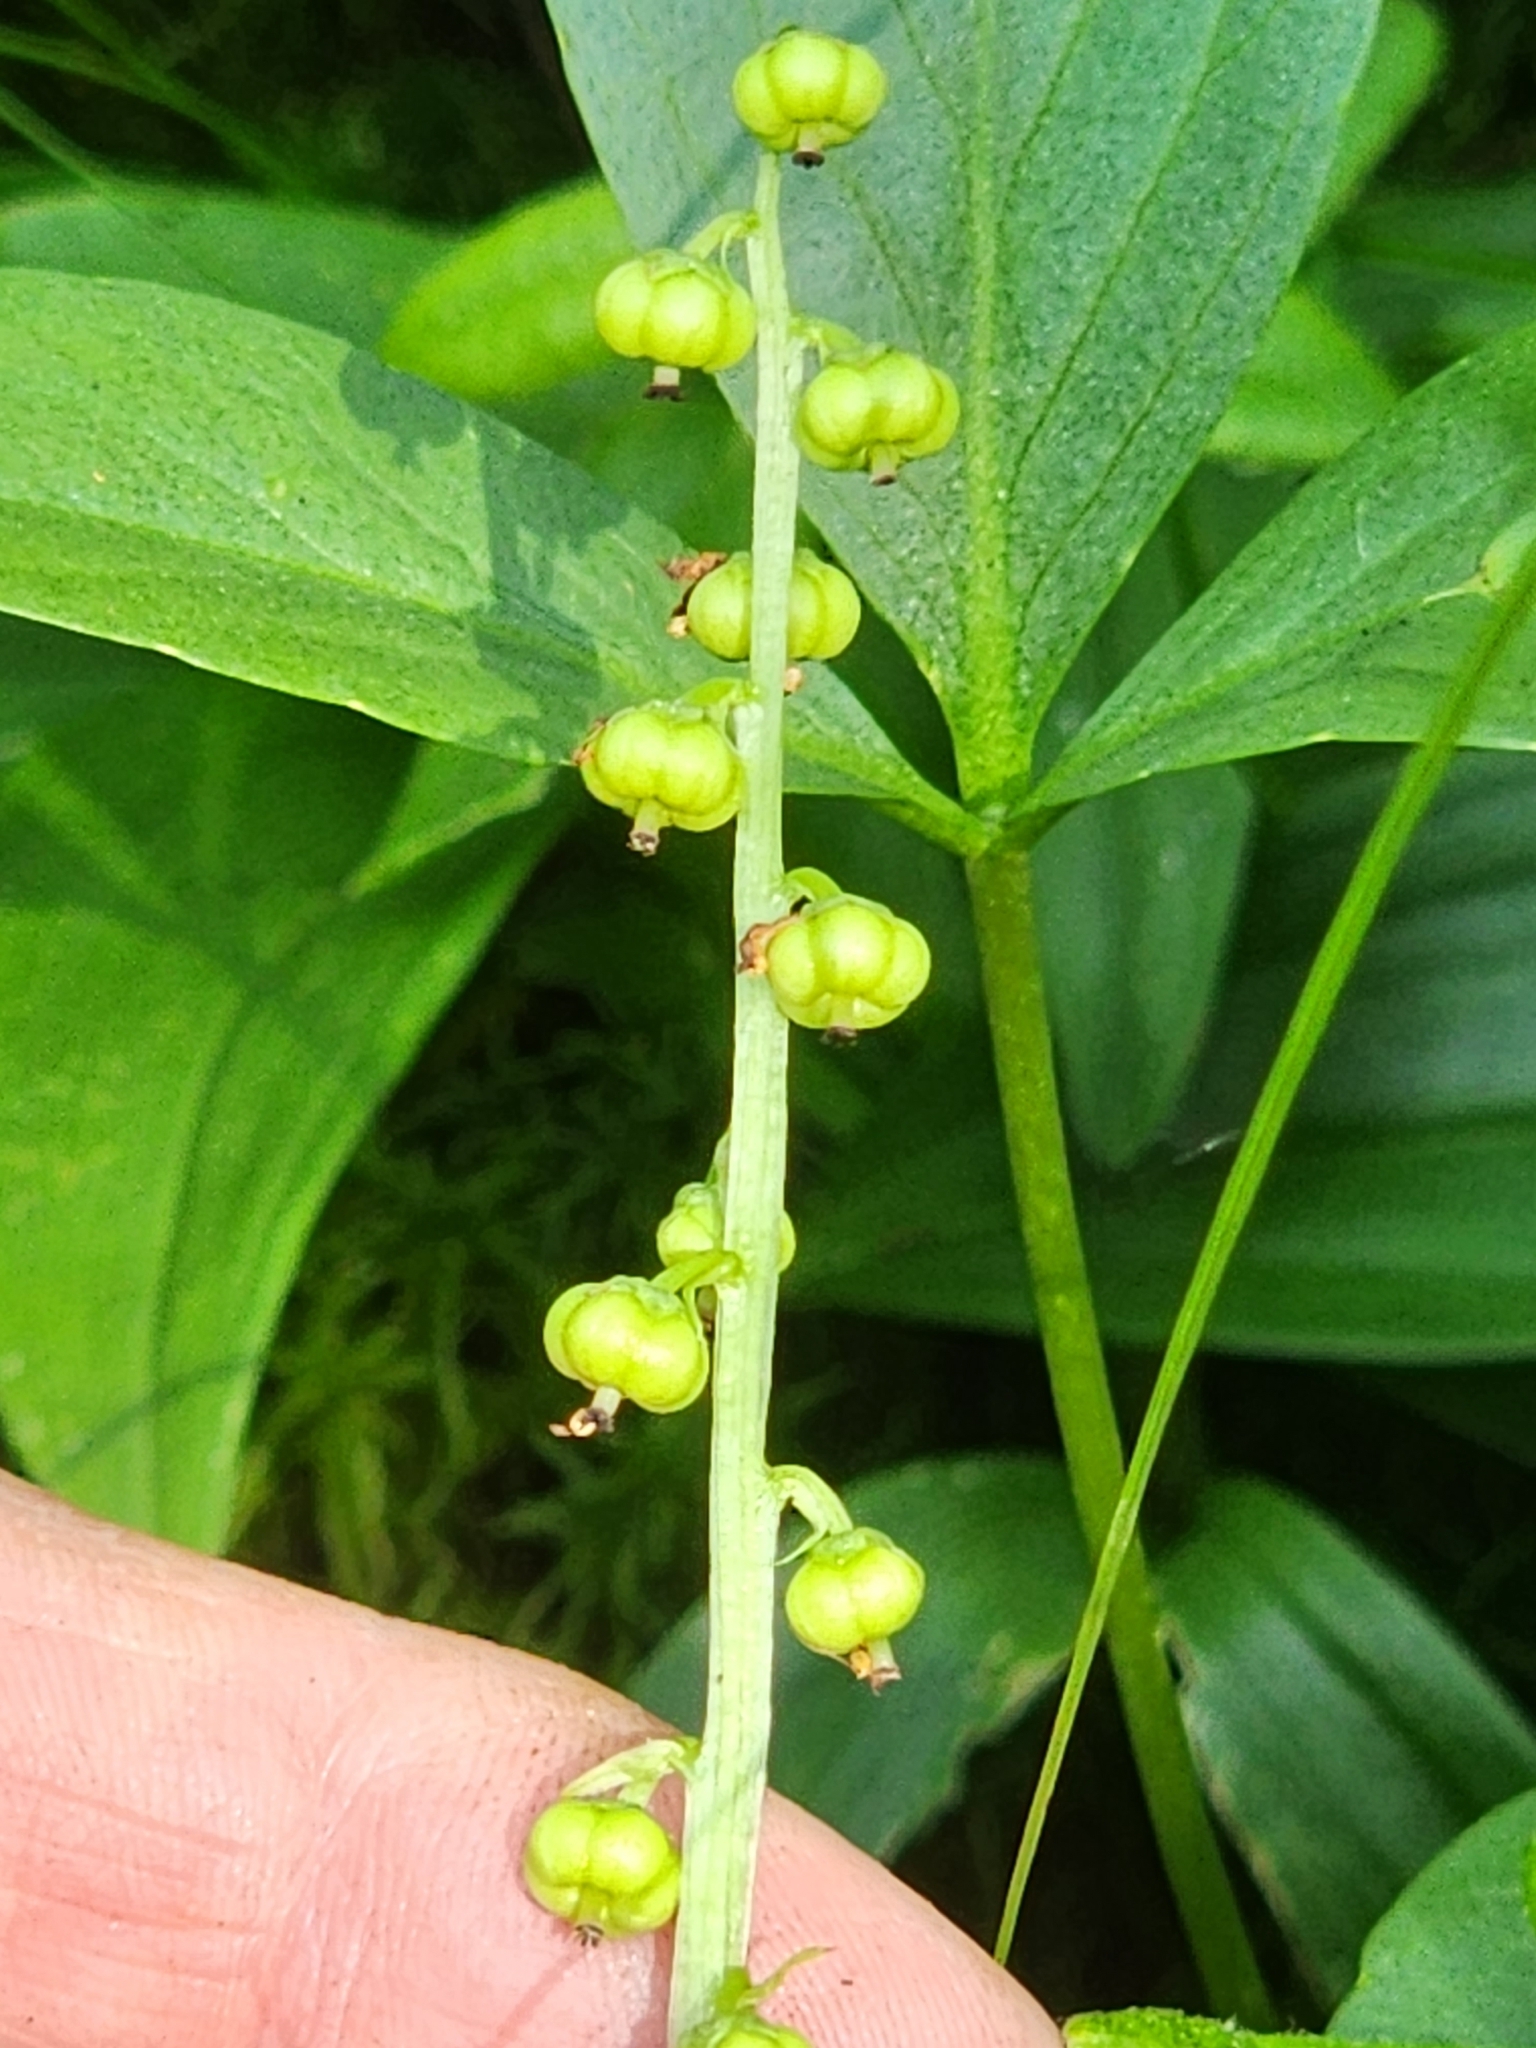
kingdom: Plantae
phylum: Tracheophyta
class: Magnoliopsida
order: Ericales
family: Ericaceae
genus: Pyrola
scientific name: Pyrola minor
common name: Common wintergreen
